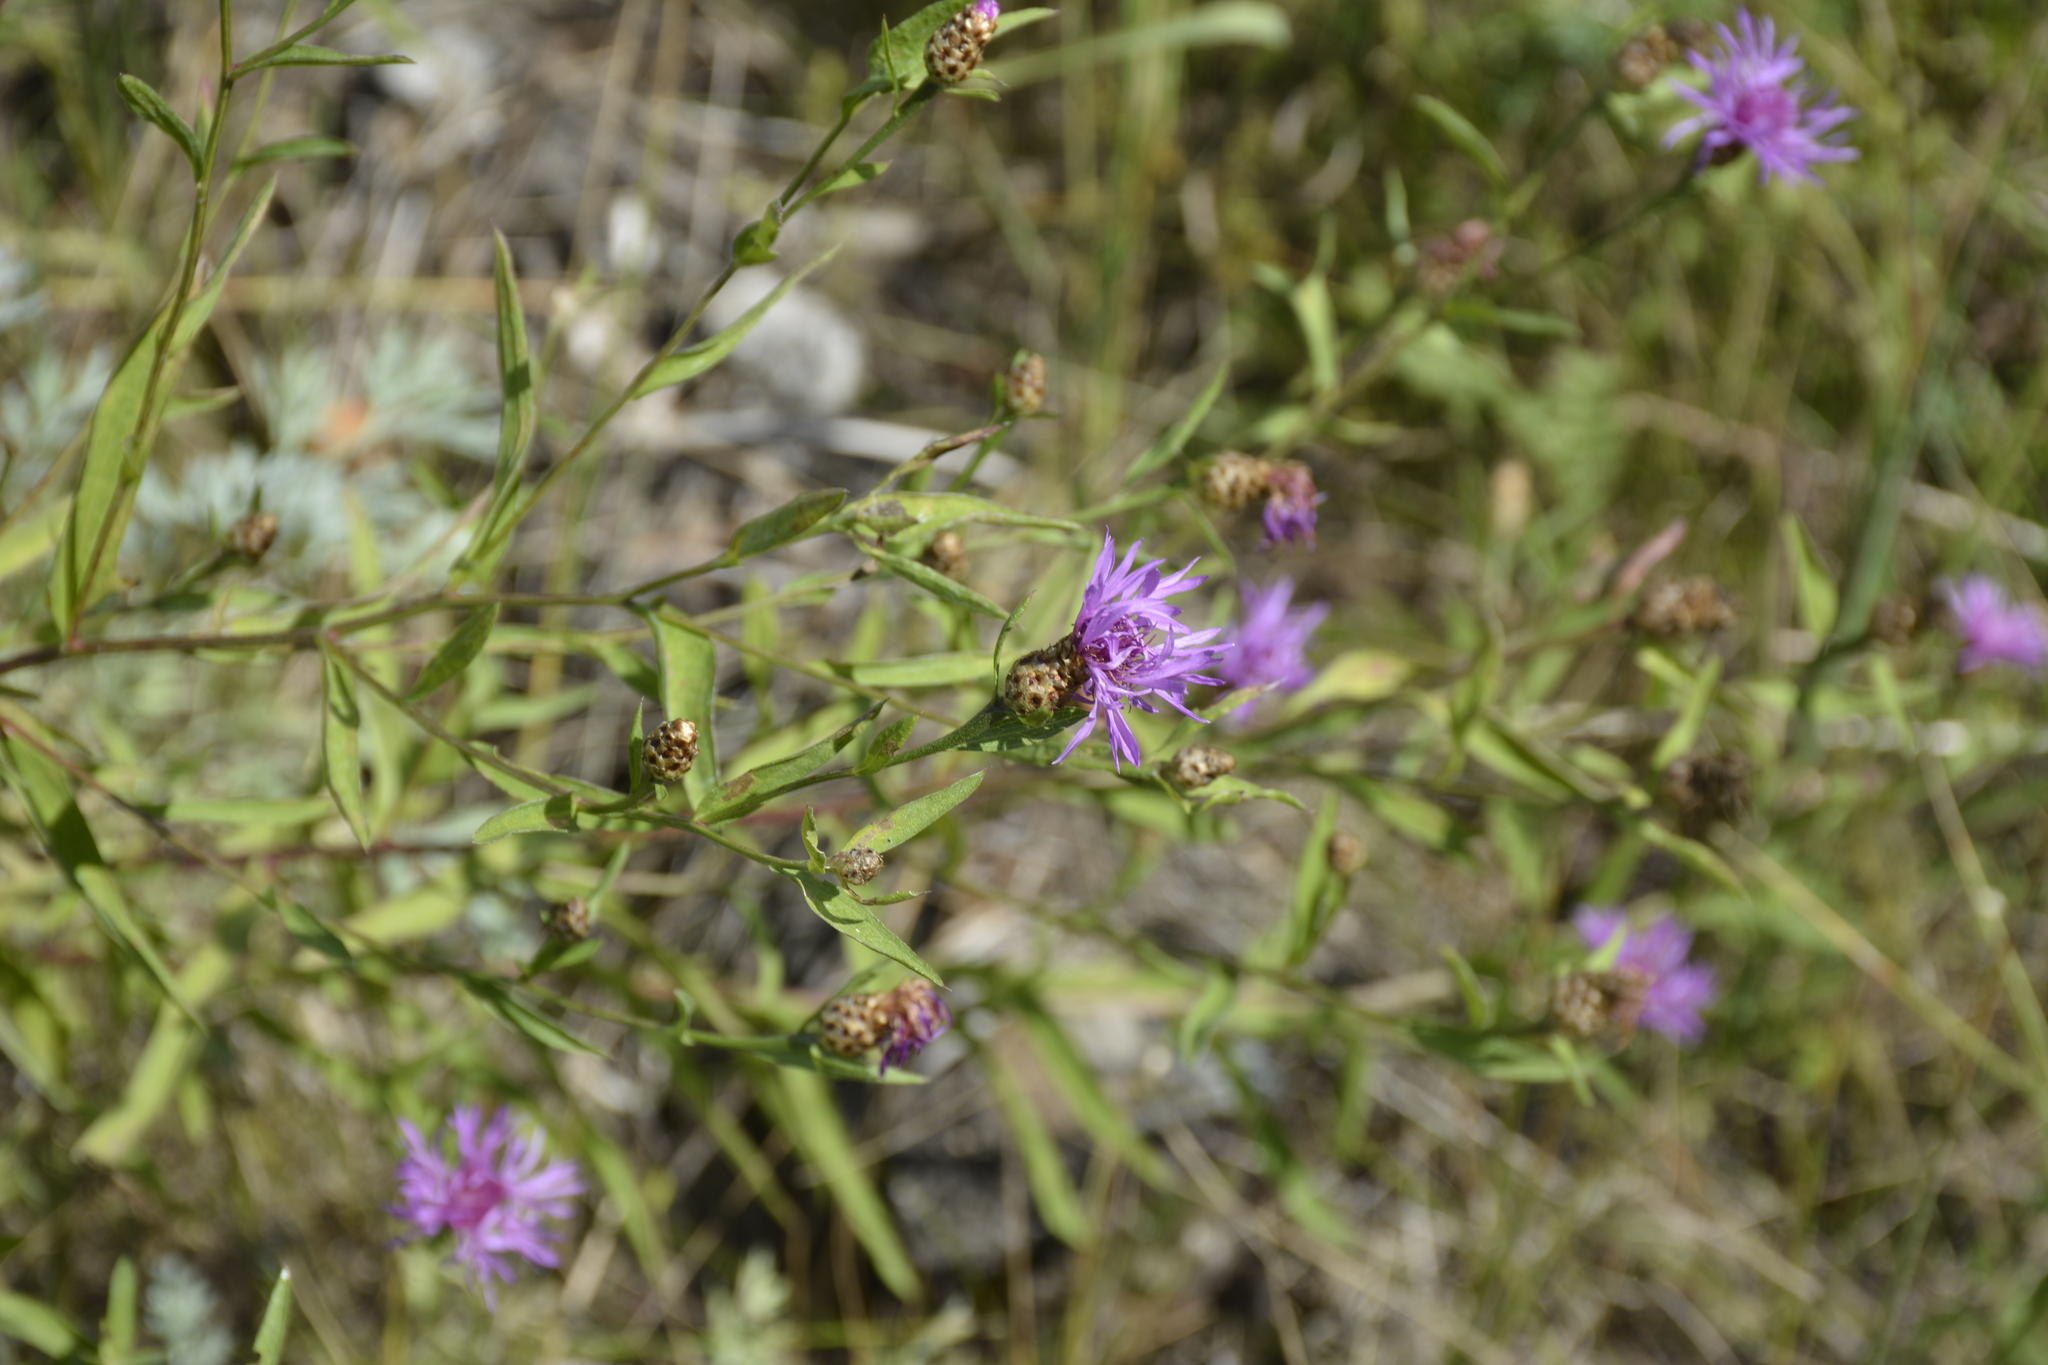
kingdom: Plantae
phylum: Tracheophyta
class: Magnoliopsida
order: Asterales
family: Asteraceae
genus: Centaurea
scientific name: Centaurea jacea
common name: Brown knapweed
